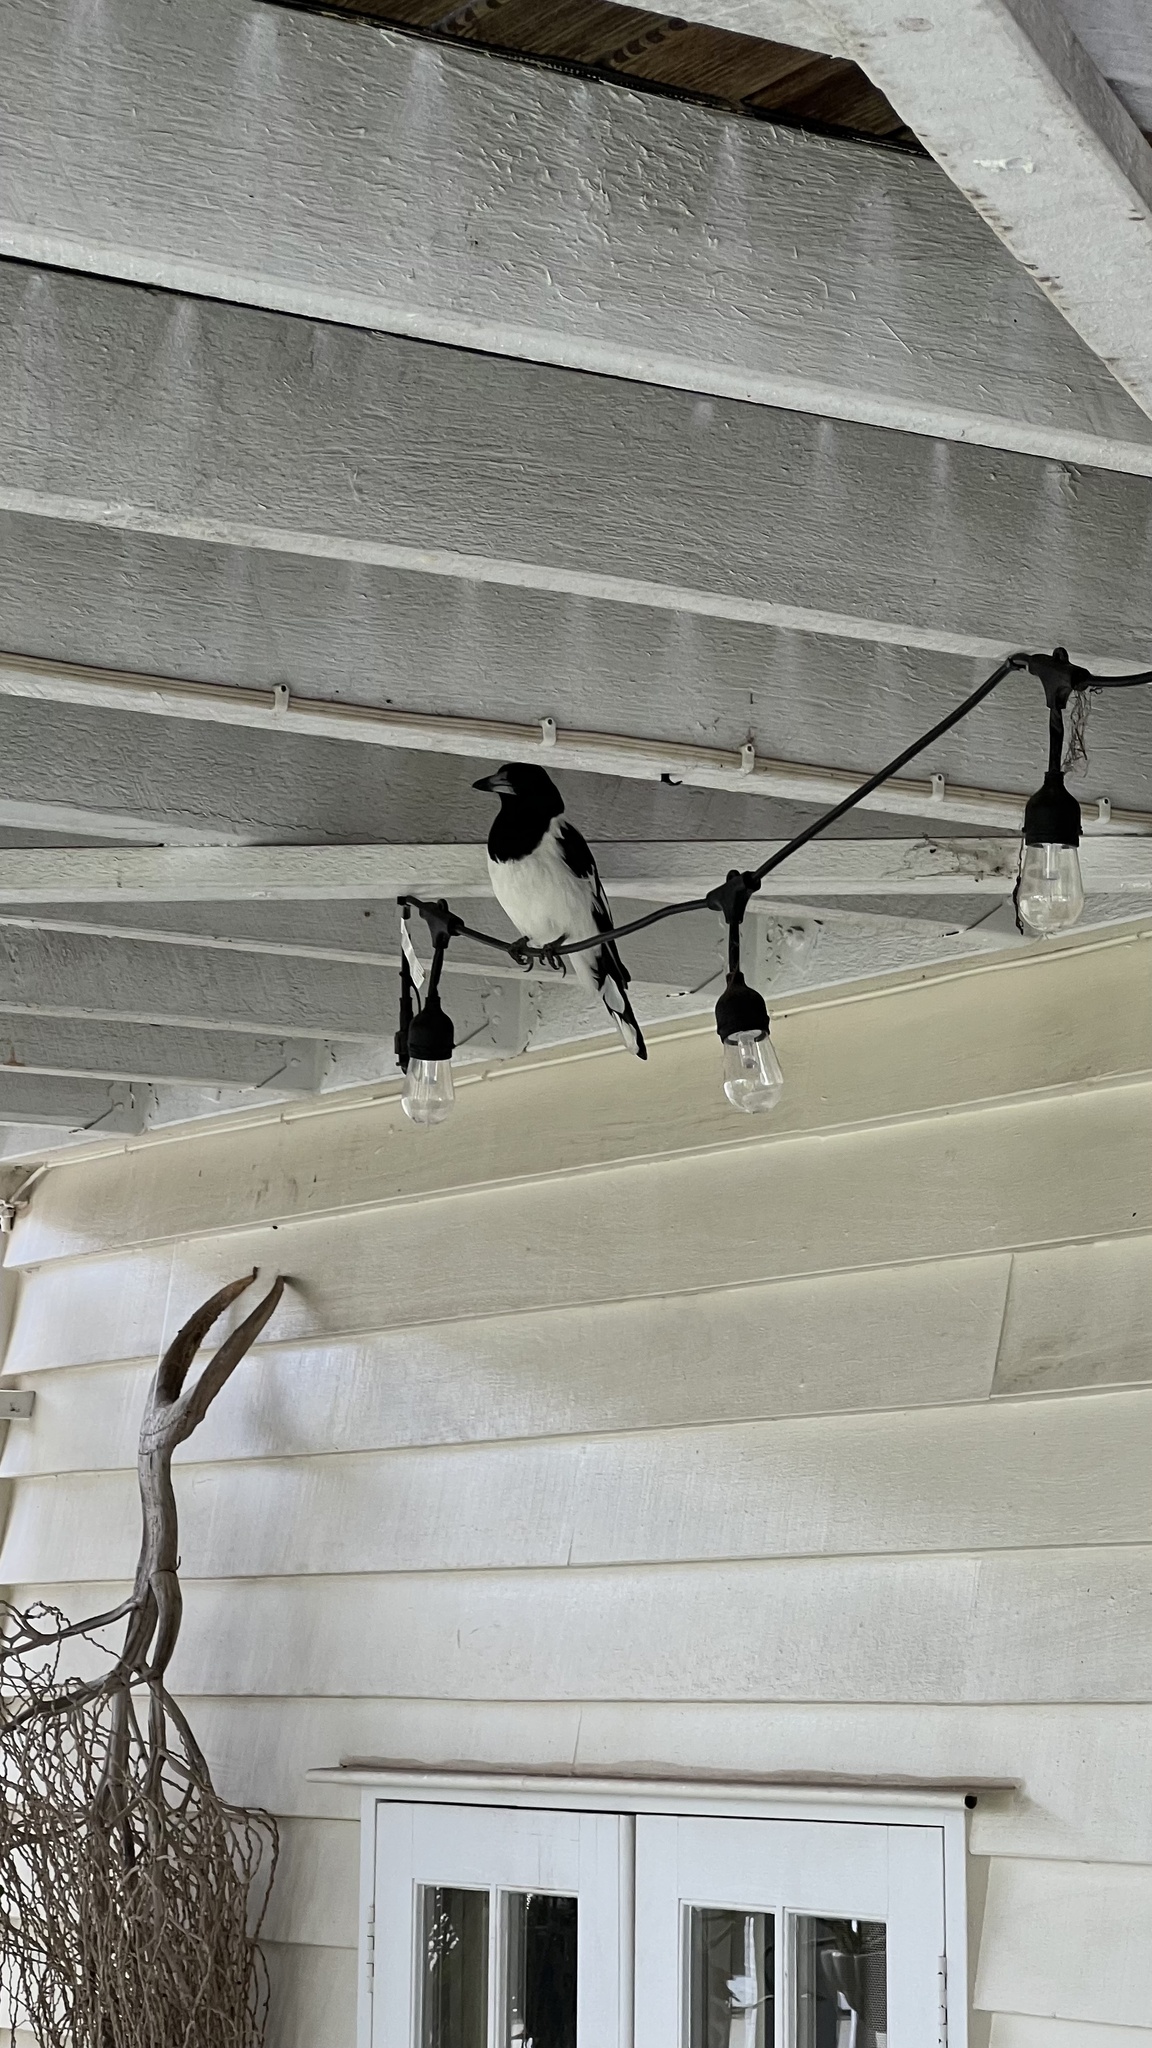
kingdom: Animalia
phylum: Chordata
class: Aves
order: Passeriformes
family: Cracticidae
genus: Cracticus
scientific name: Cracticus nigrogularis
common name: Pied butcherbird
